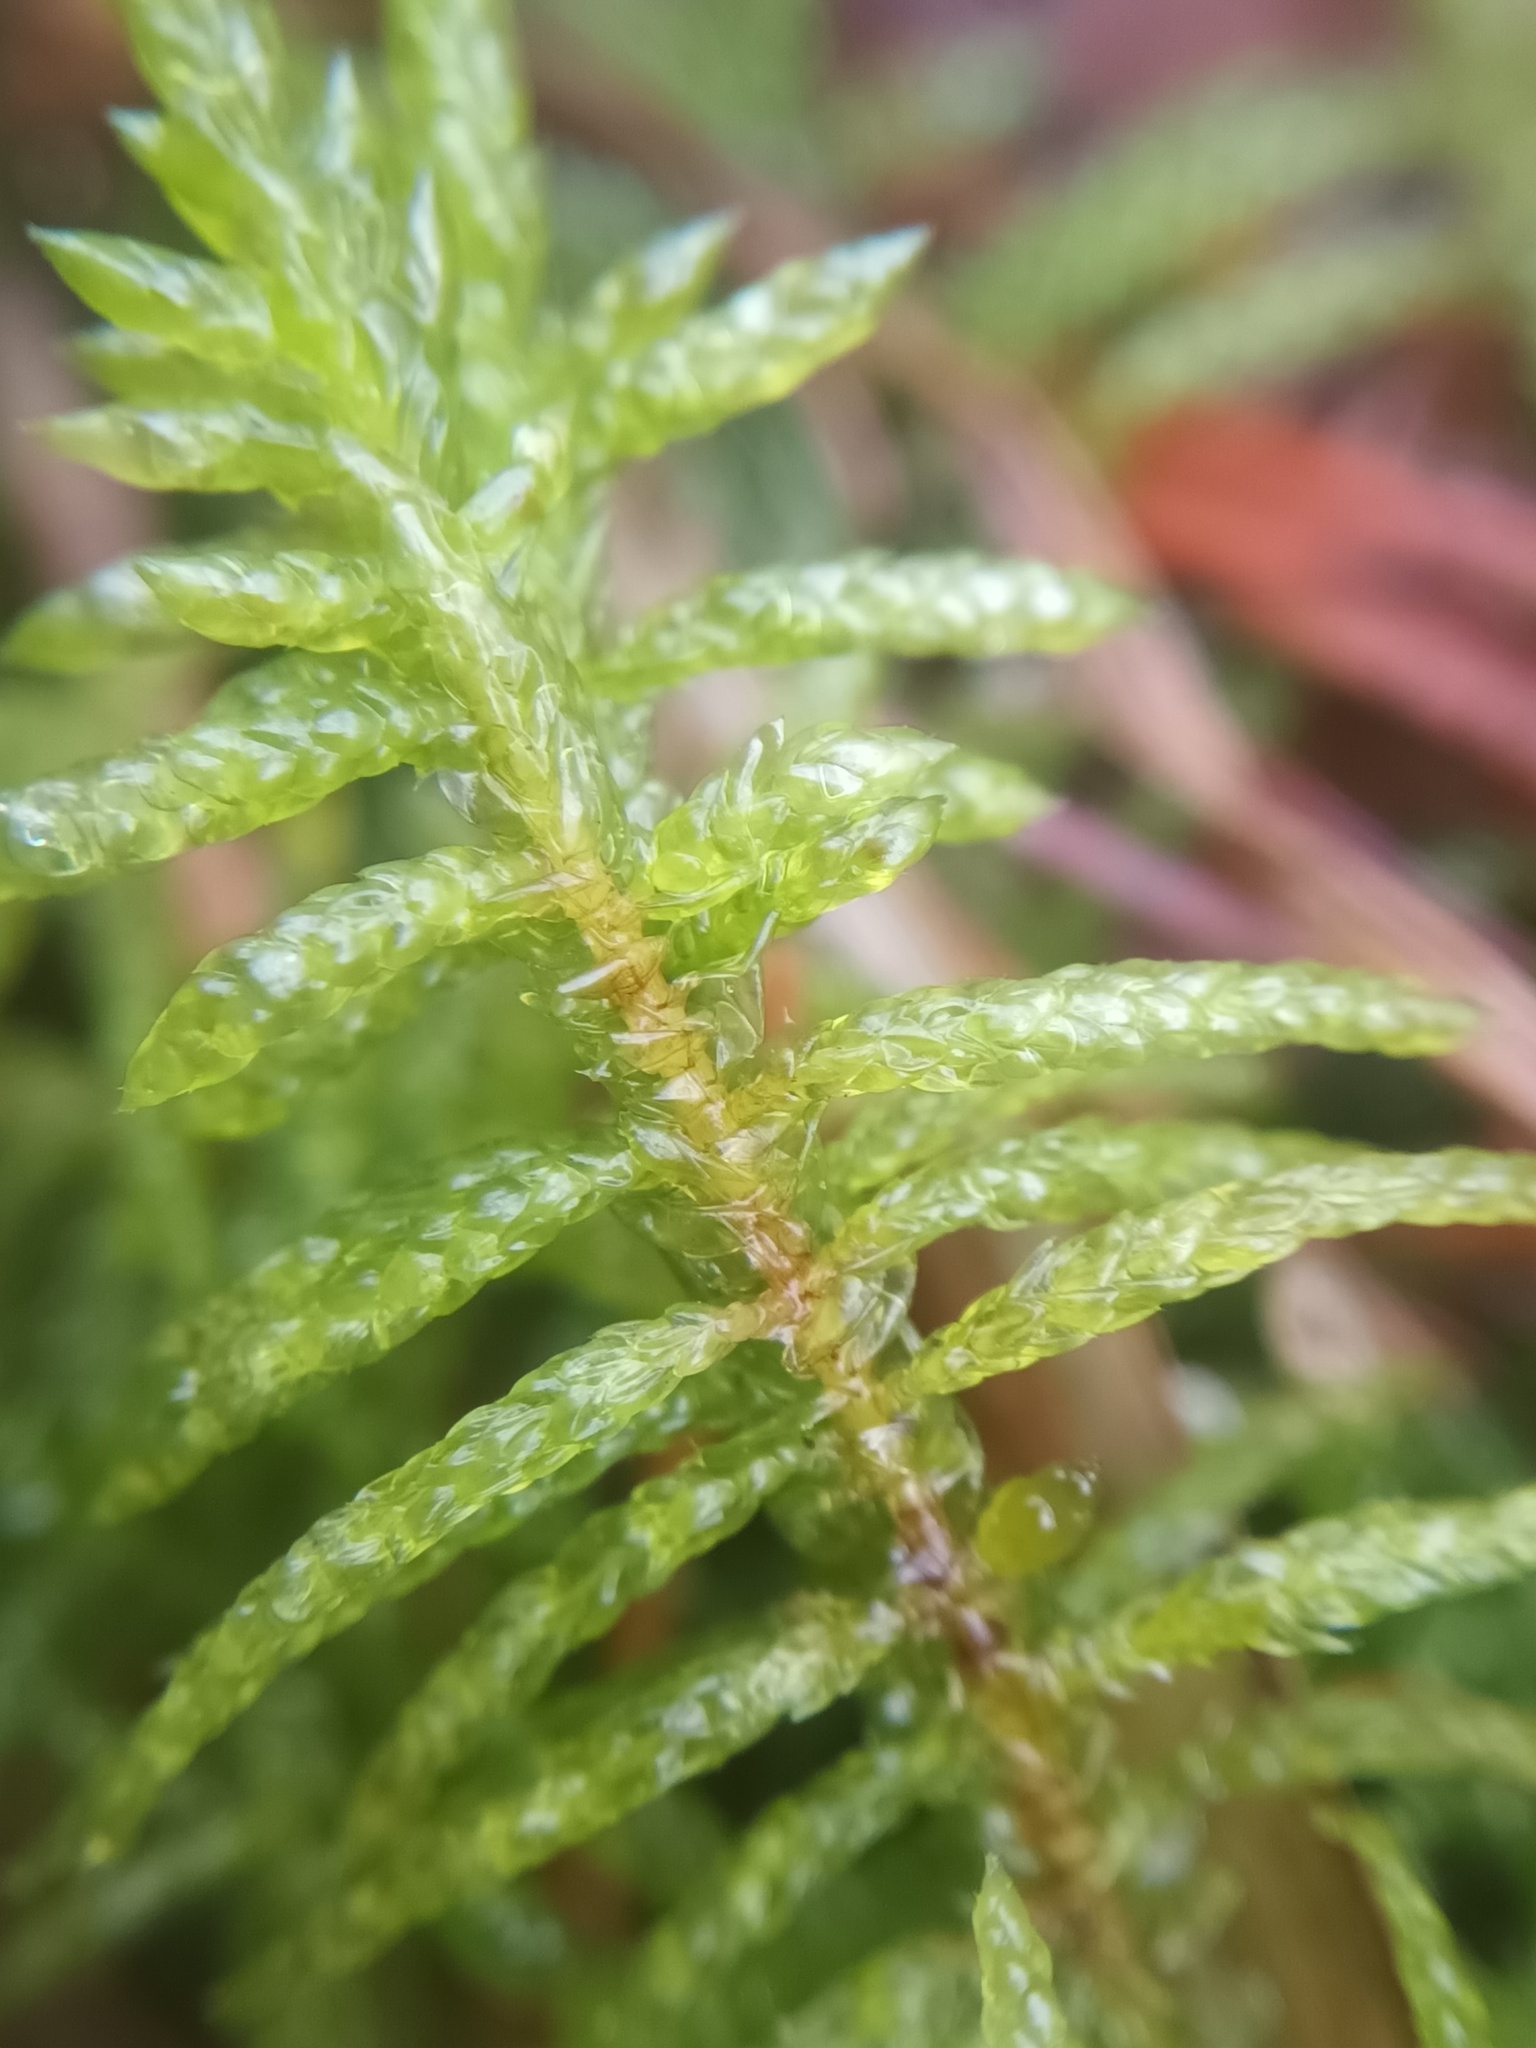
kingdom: Plantae
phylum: Bryophyta
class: Bryopsida
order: Hypnales
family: Brachytheciaceae
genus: Pseudoscleropodium
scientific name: Pseudoscleropodium purum
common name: Neat feather-moss
